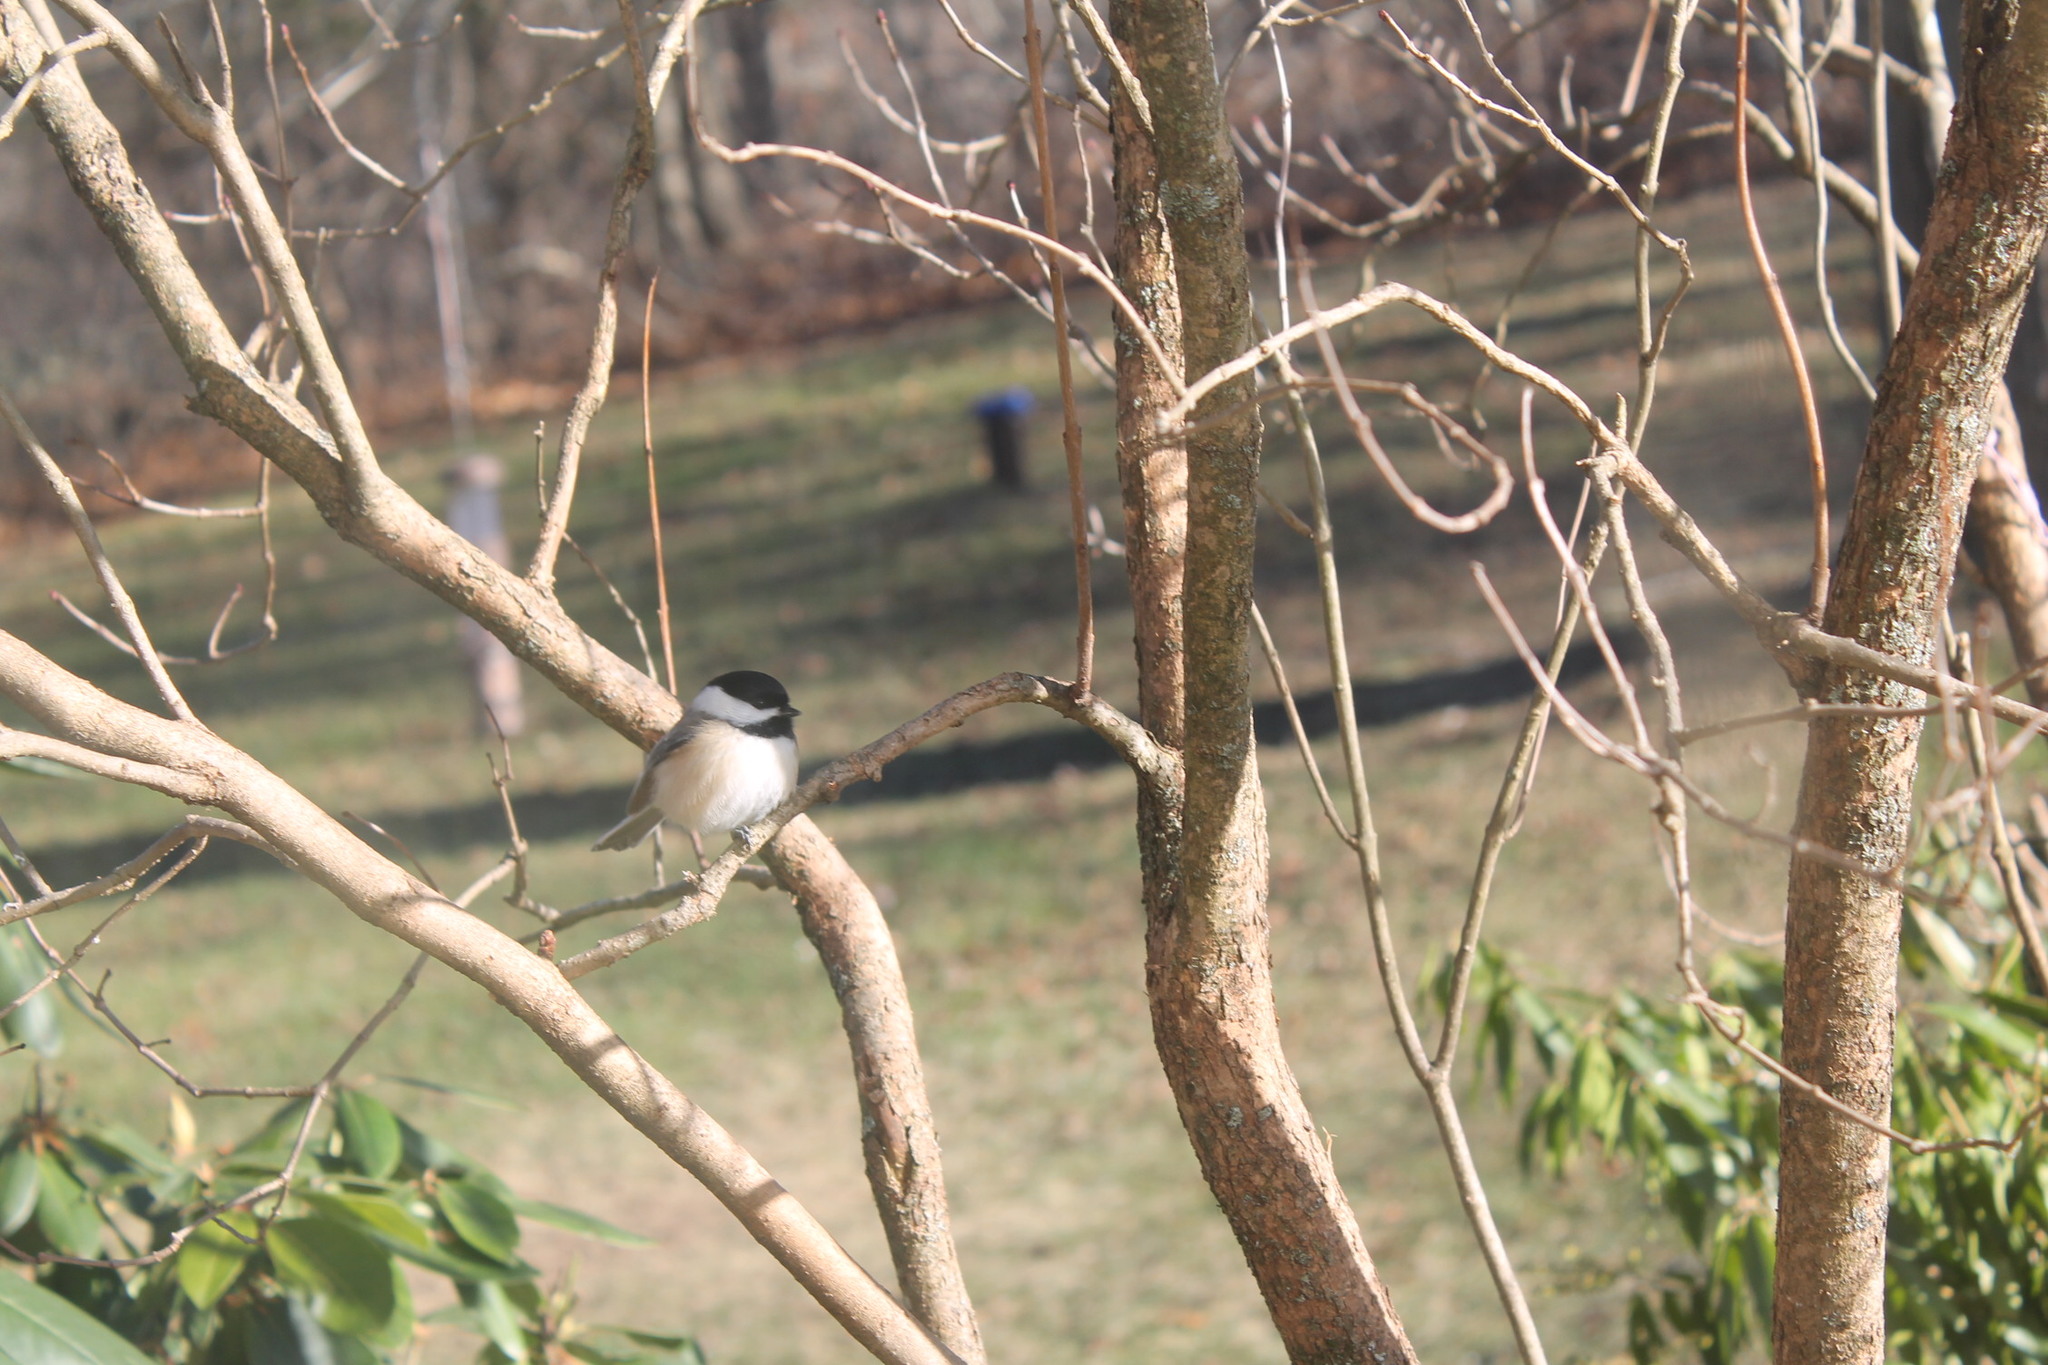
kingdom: Animalia
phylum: Chordata
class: Aves
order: Passeriformes
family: Paridae
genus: Poecile
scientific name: Poecile atricapillus
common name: Black-capped chickadee
